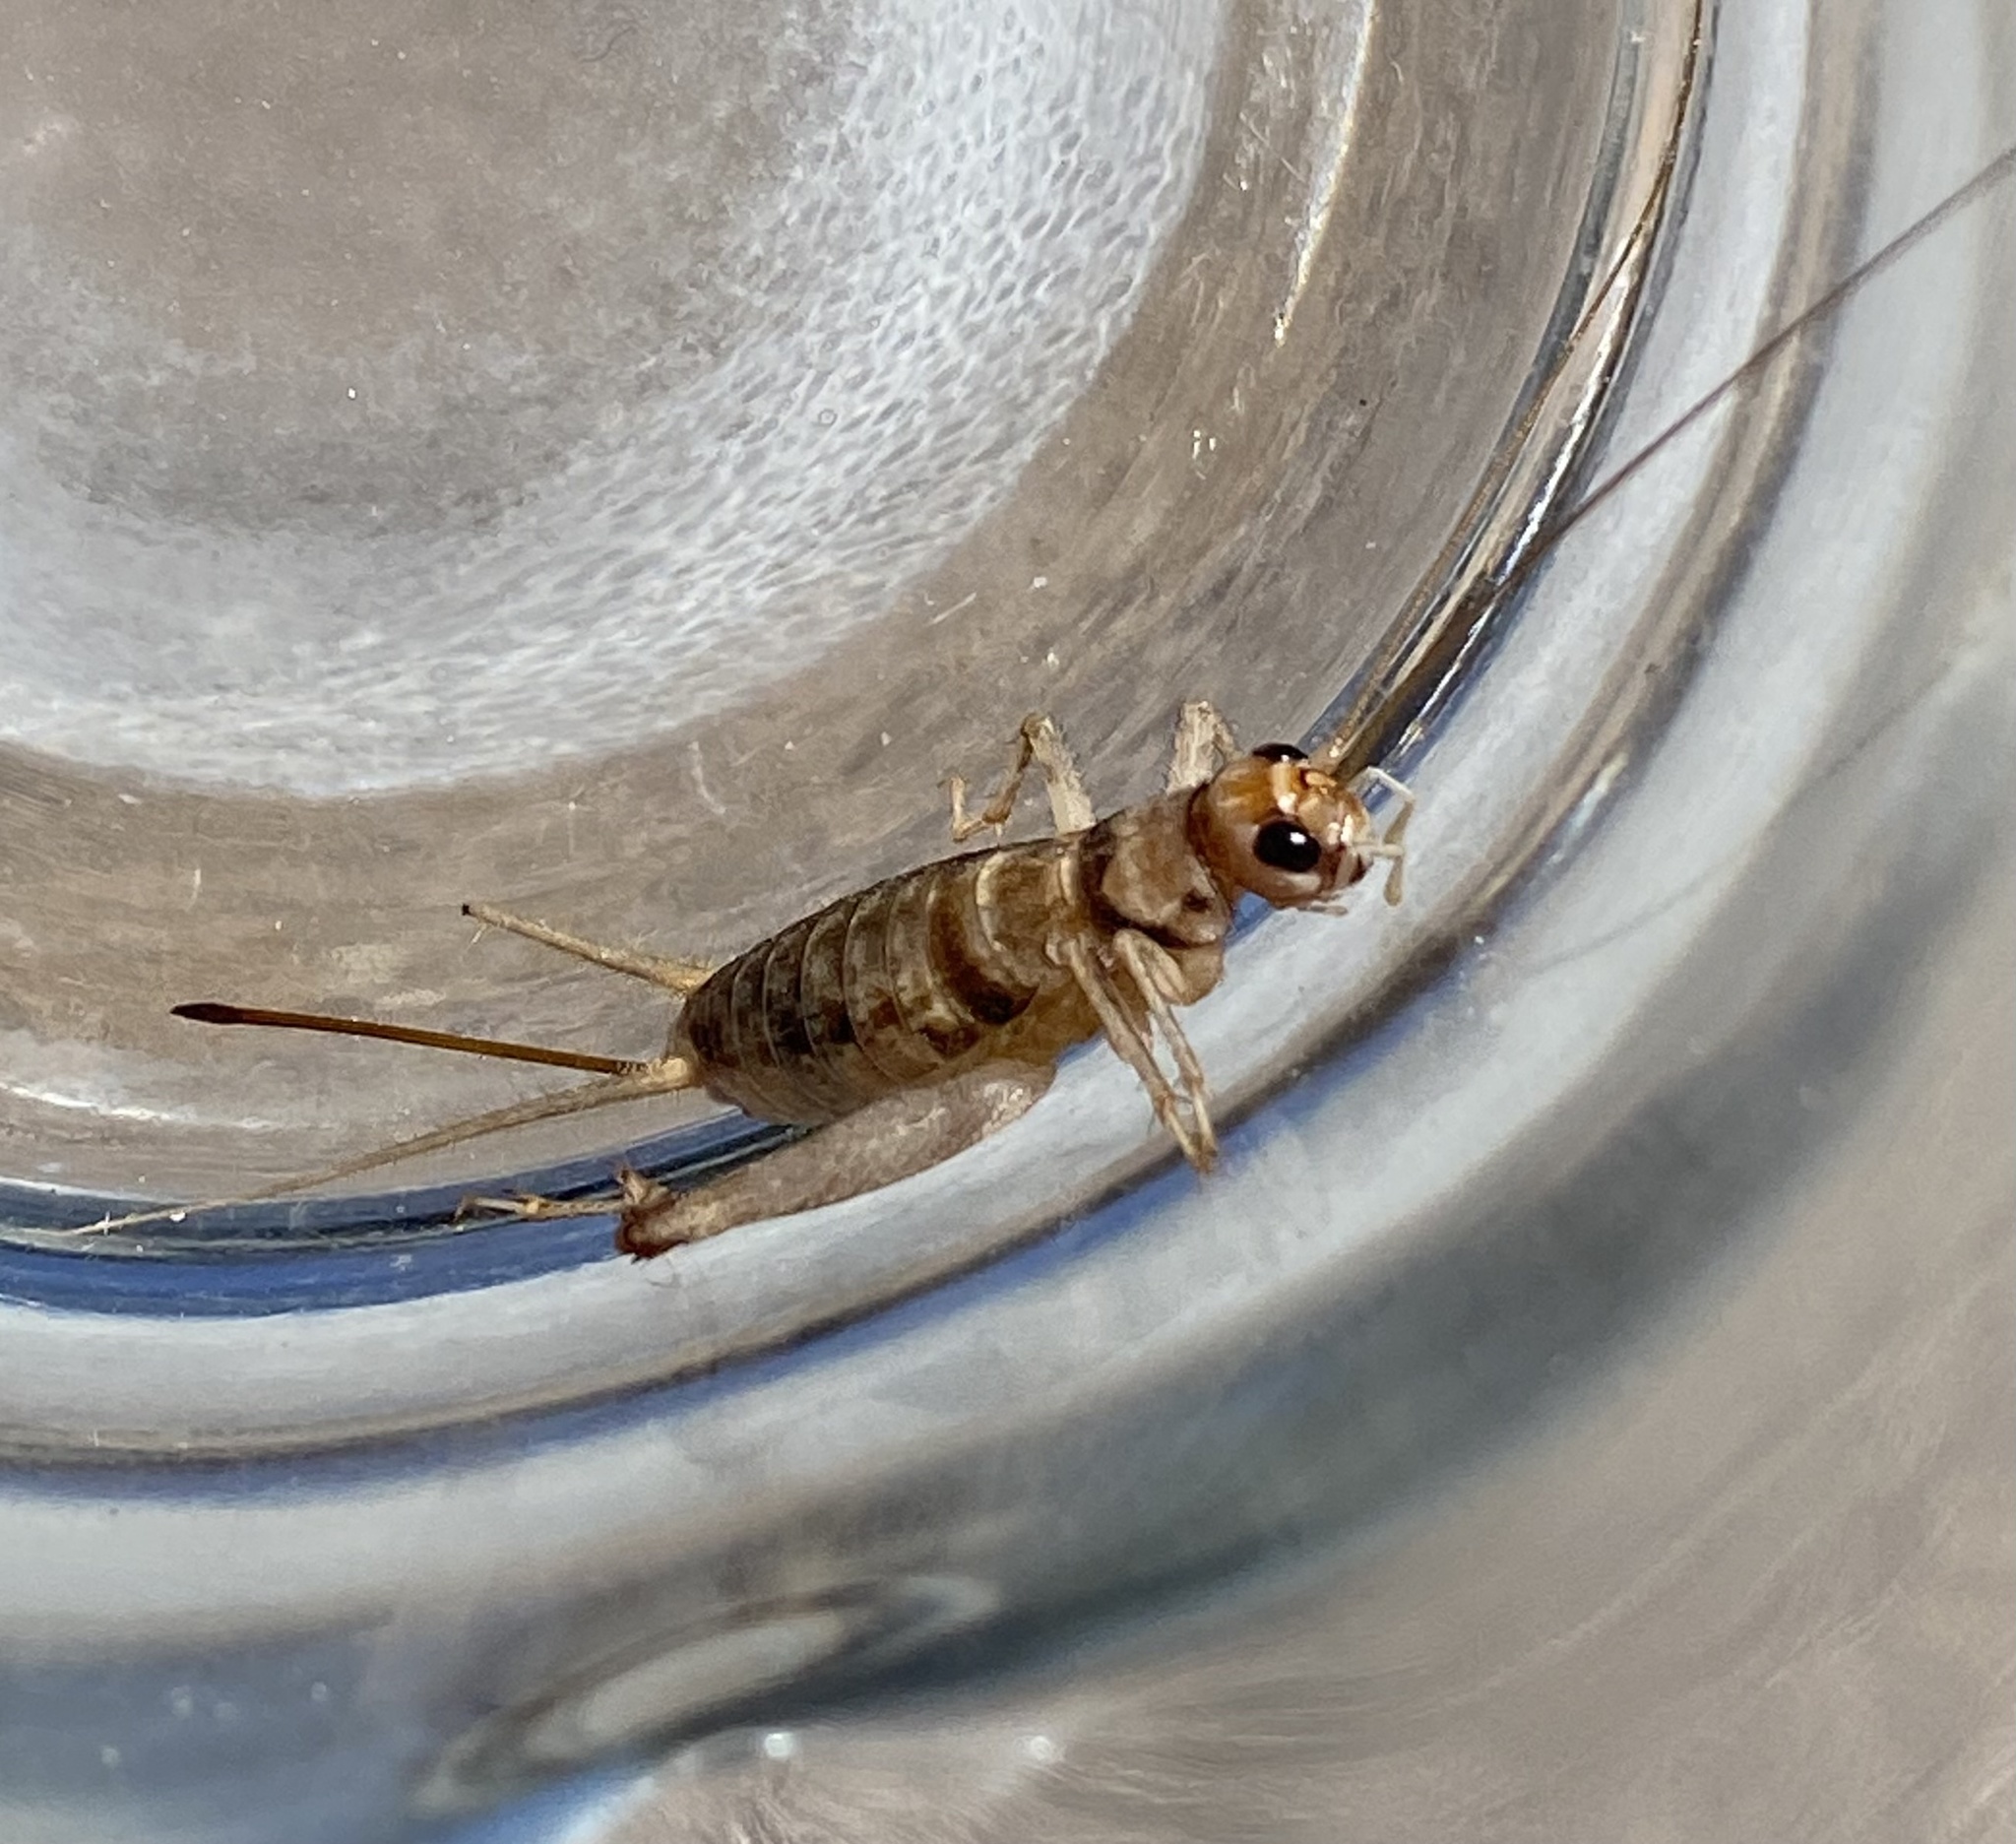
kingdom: Animalia
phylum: Arthropoda
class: Insecta
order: Orthoptera
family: Gryllidae
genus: Gryllodes
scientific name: Gryllodes sigillatus
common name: Tropical house cricket
